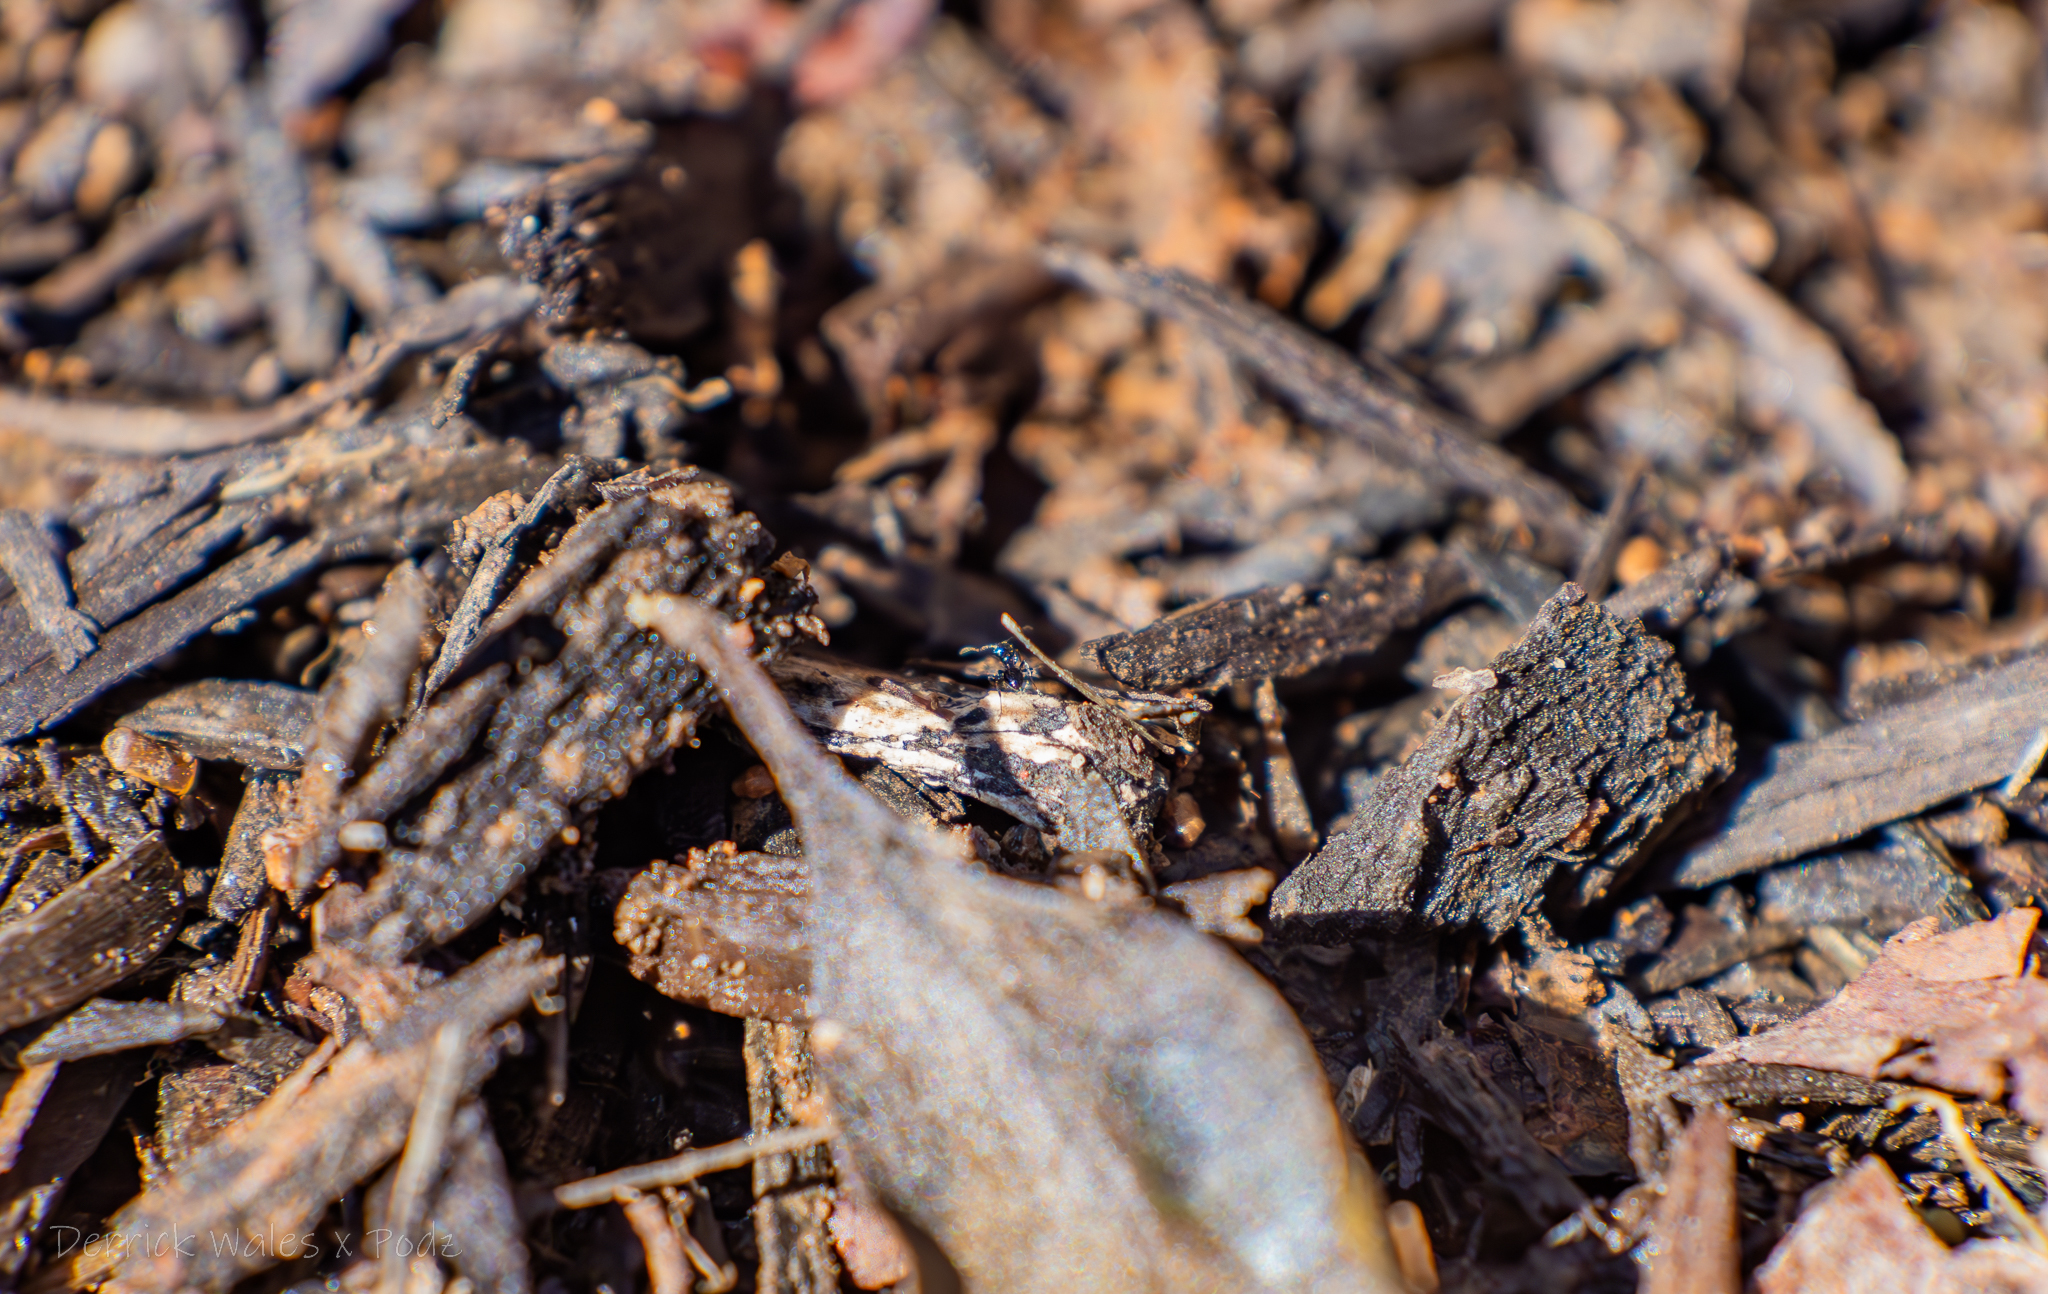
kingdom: Animalia
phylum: Arthropoda
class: Insecta
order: Hymenoptera
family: Formicidae
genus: Monomorium
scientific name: Monomorium minimum
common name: Little black ant
